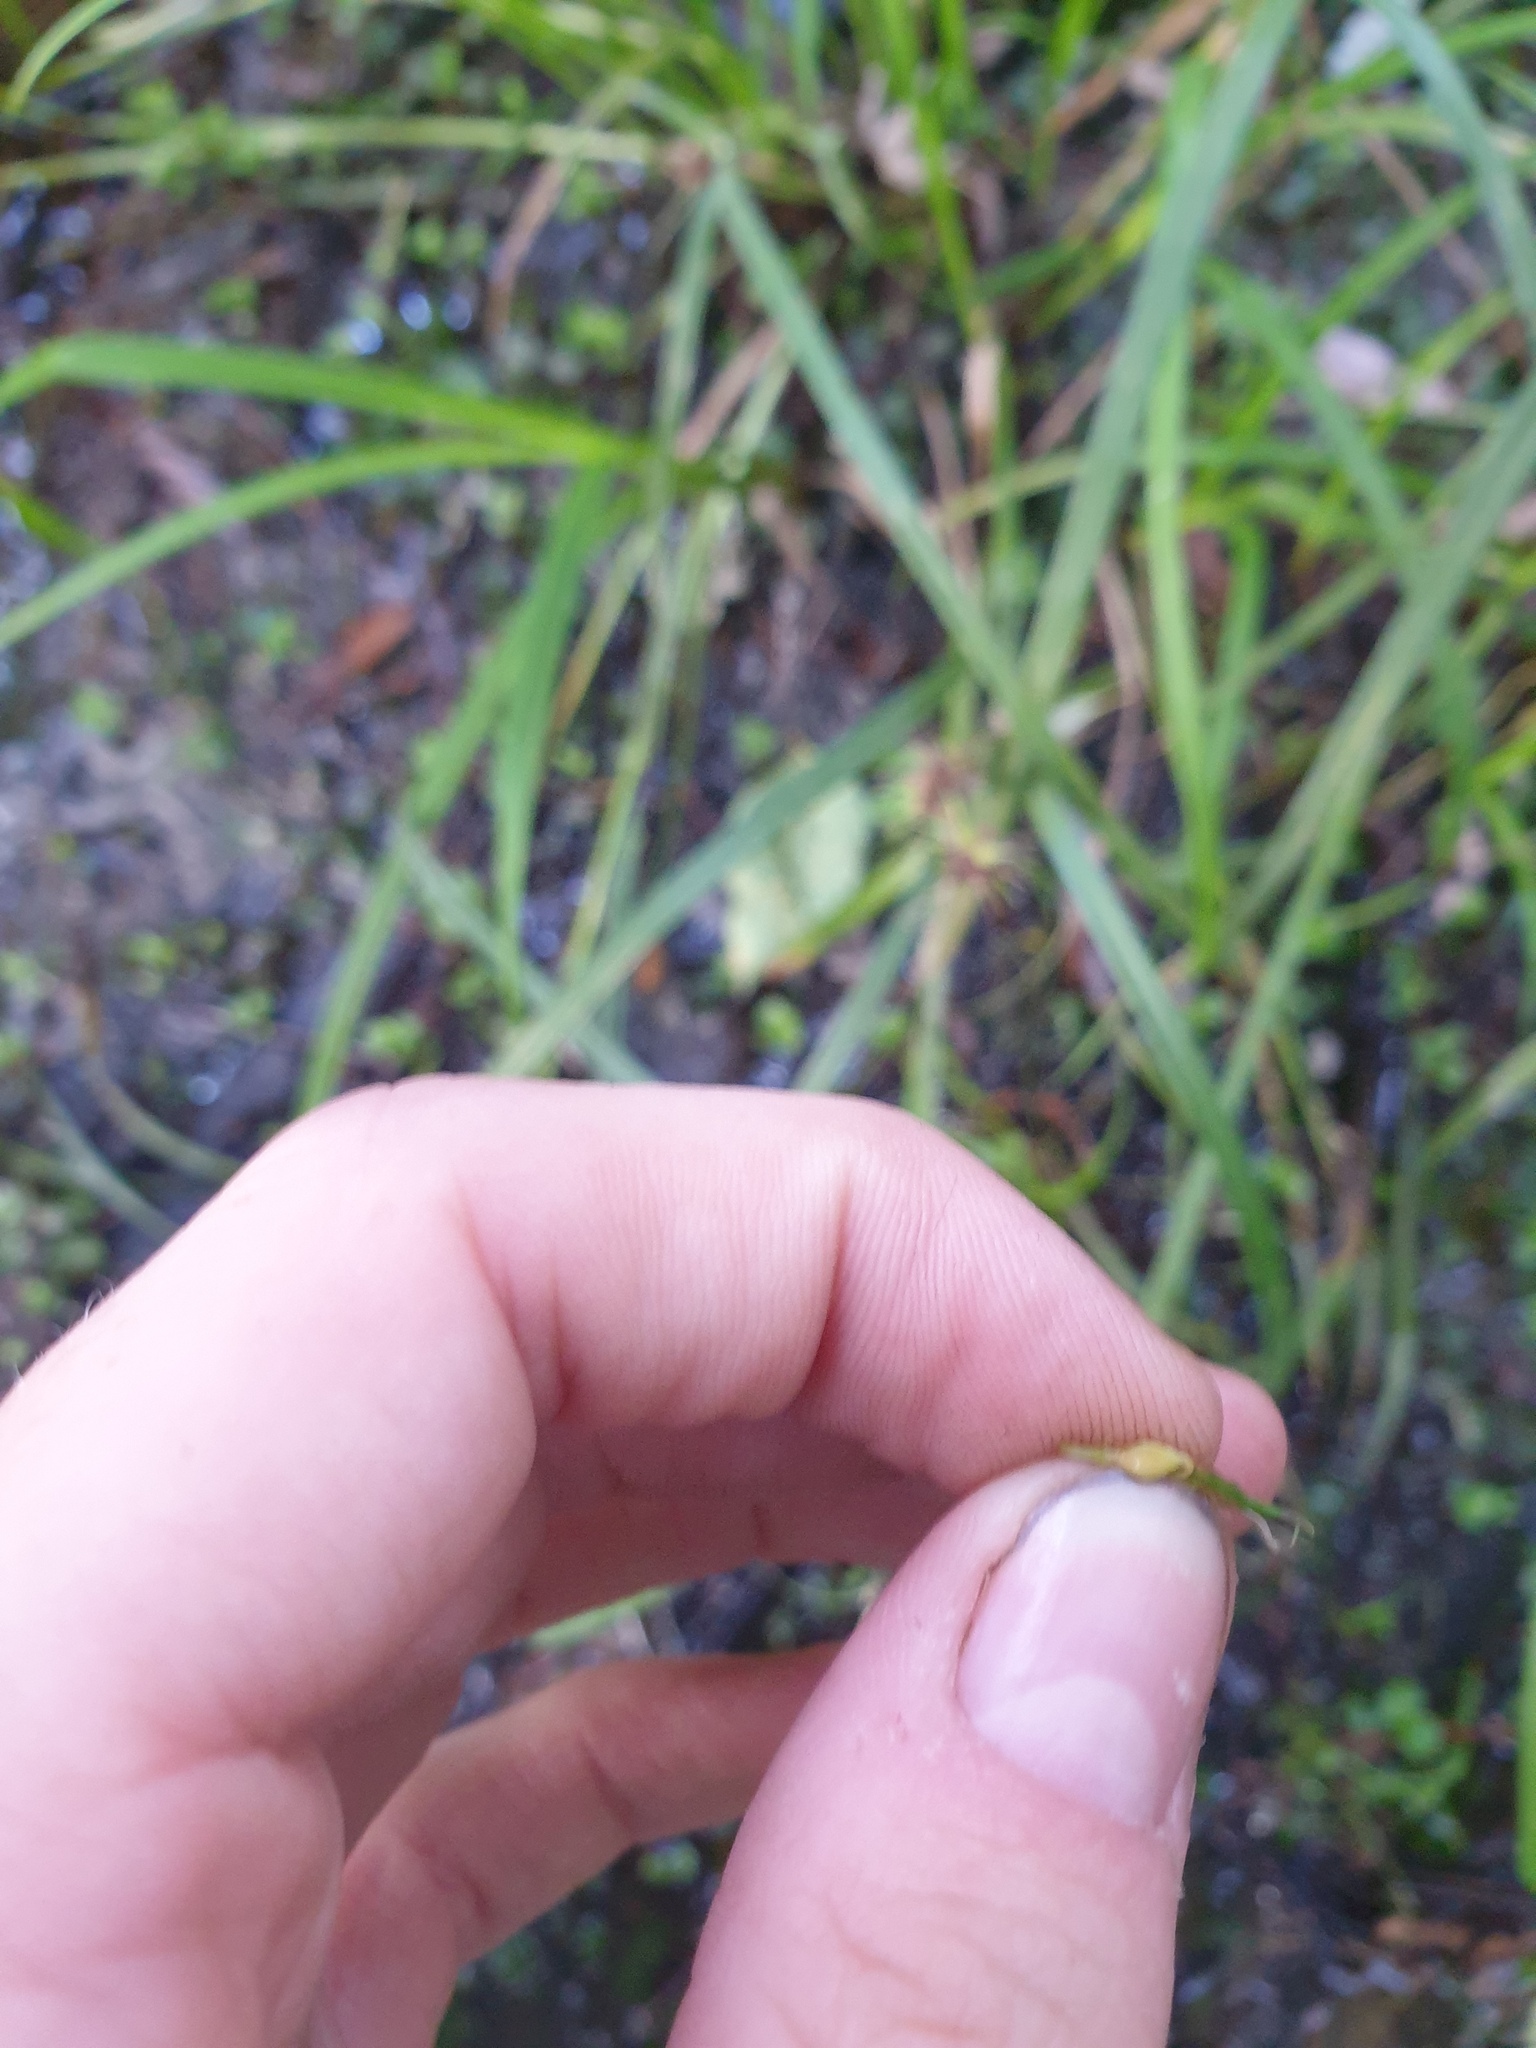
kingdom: Plantae
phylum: Tracheophyta
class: Liliopsida
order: Poales
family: Cyperaceae
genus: Carex
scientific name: Carex lupulina
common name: Hop sedge
